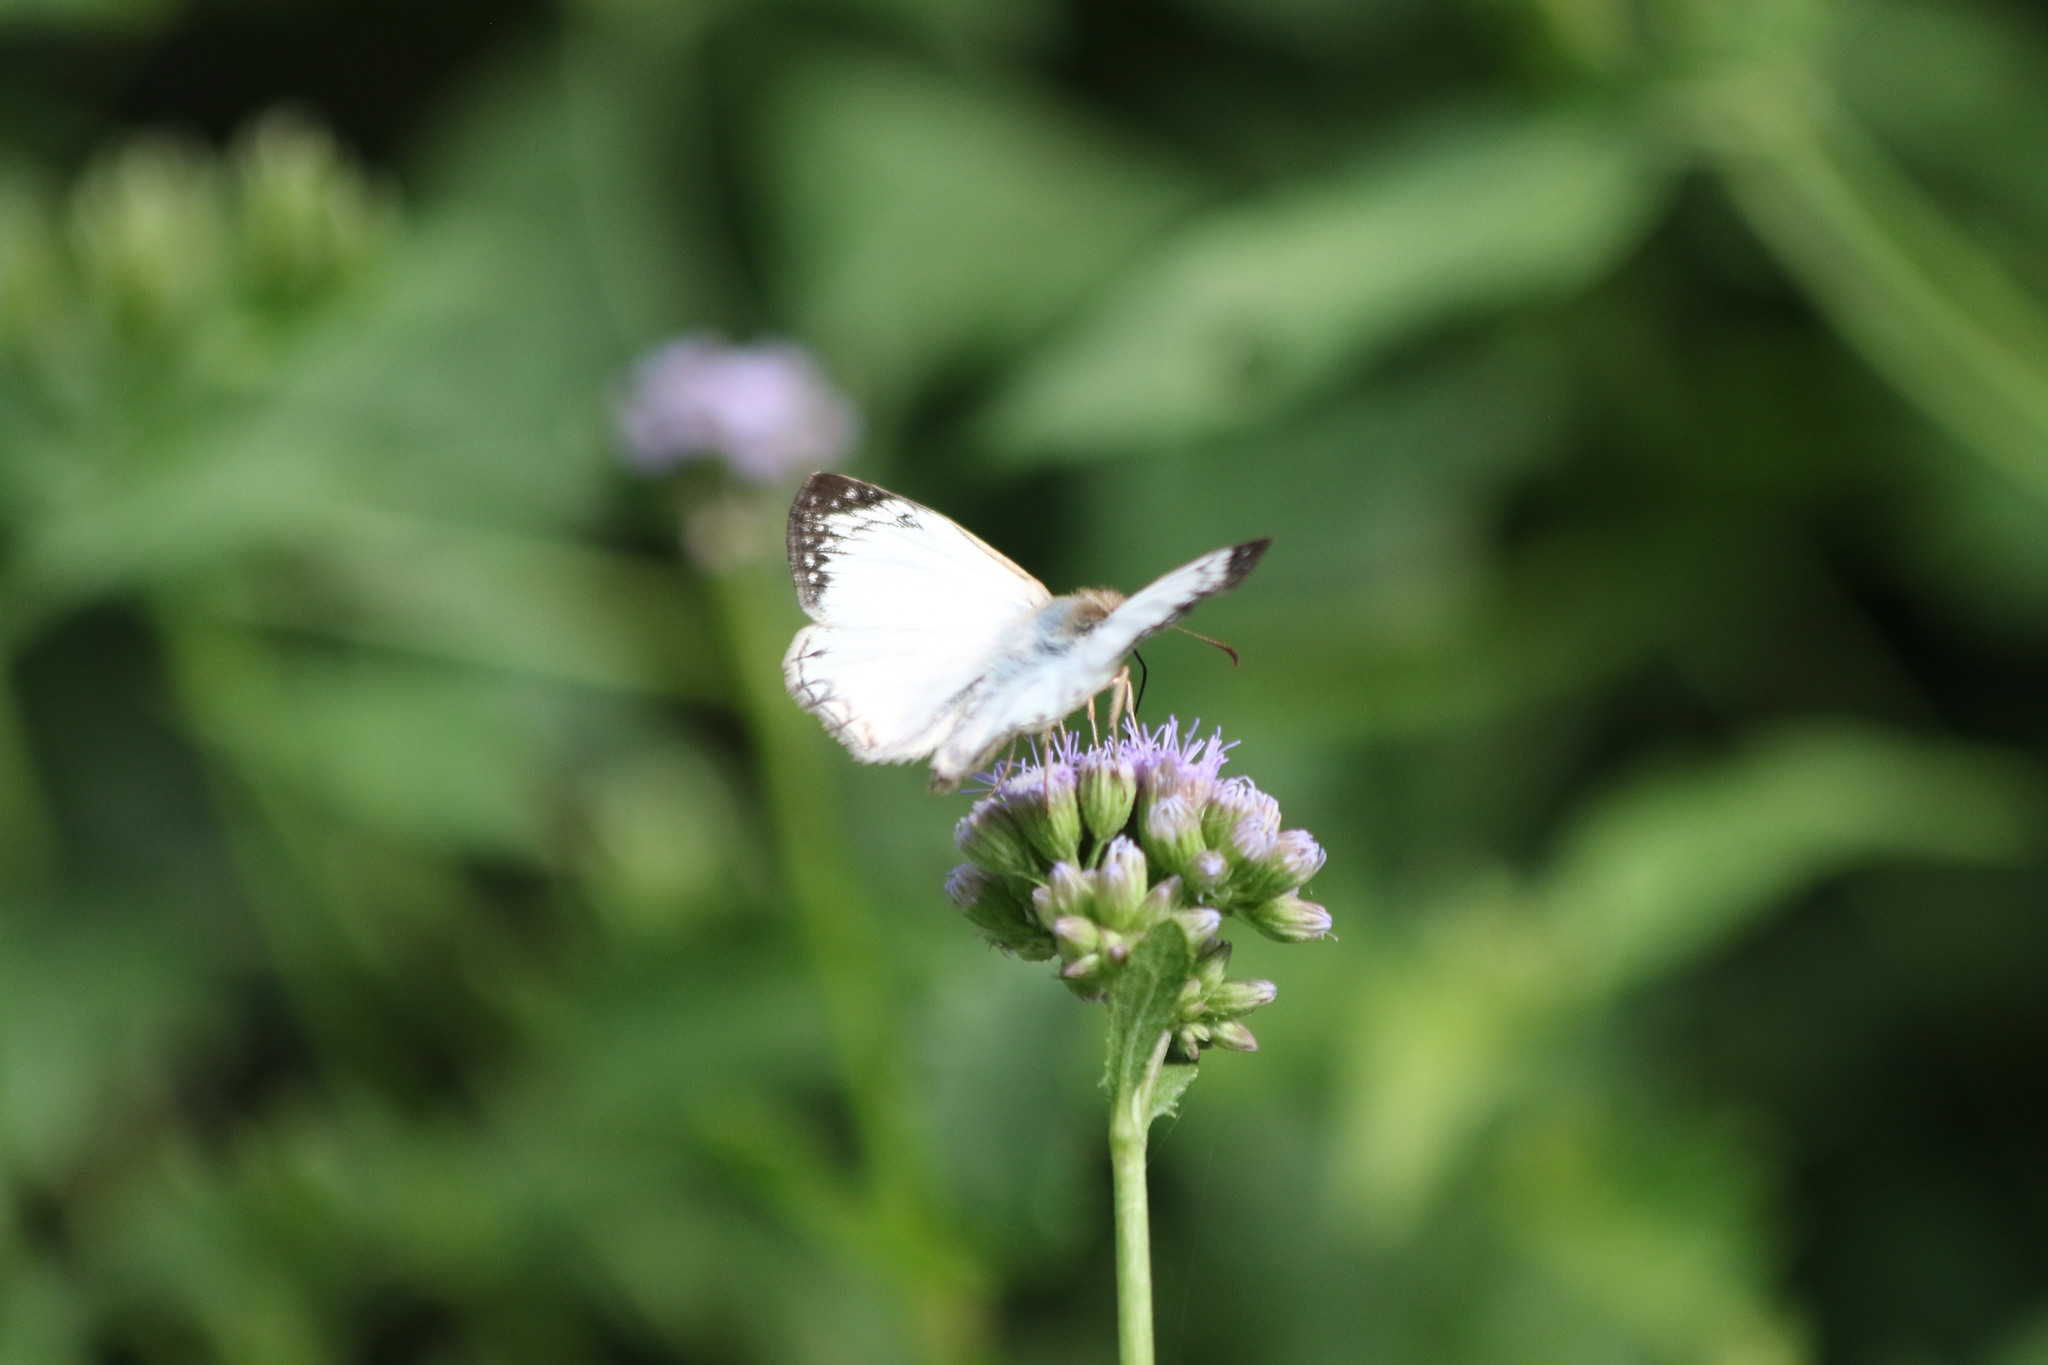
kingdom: Animalia
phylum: Arthropoda
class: Insecta
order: Lepidoptera
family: Hesperiidae
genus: Heliopetes
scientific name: Heliopetes laviana
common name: Laviana white-skipper
